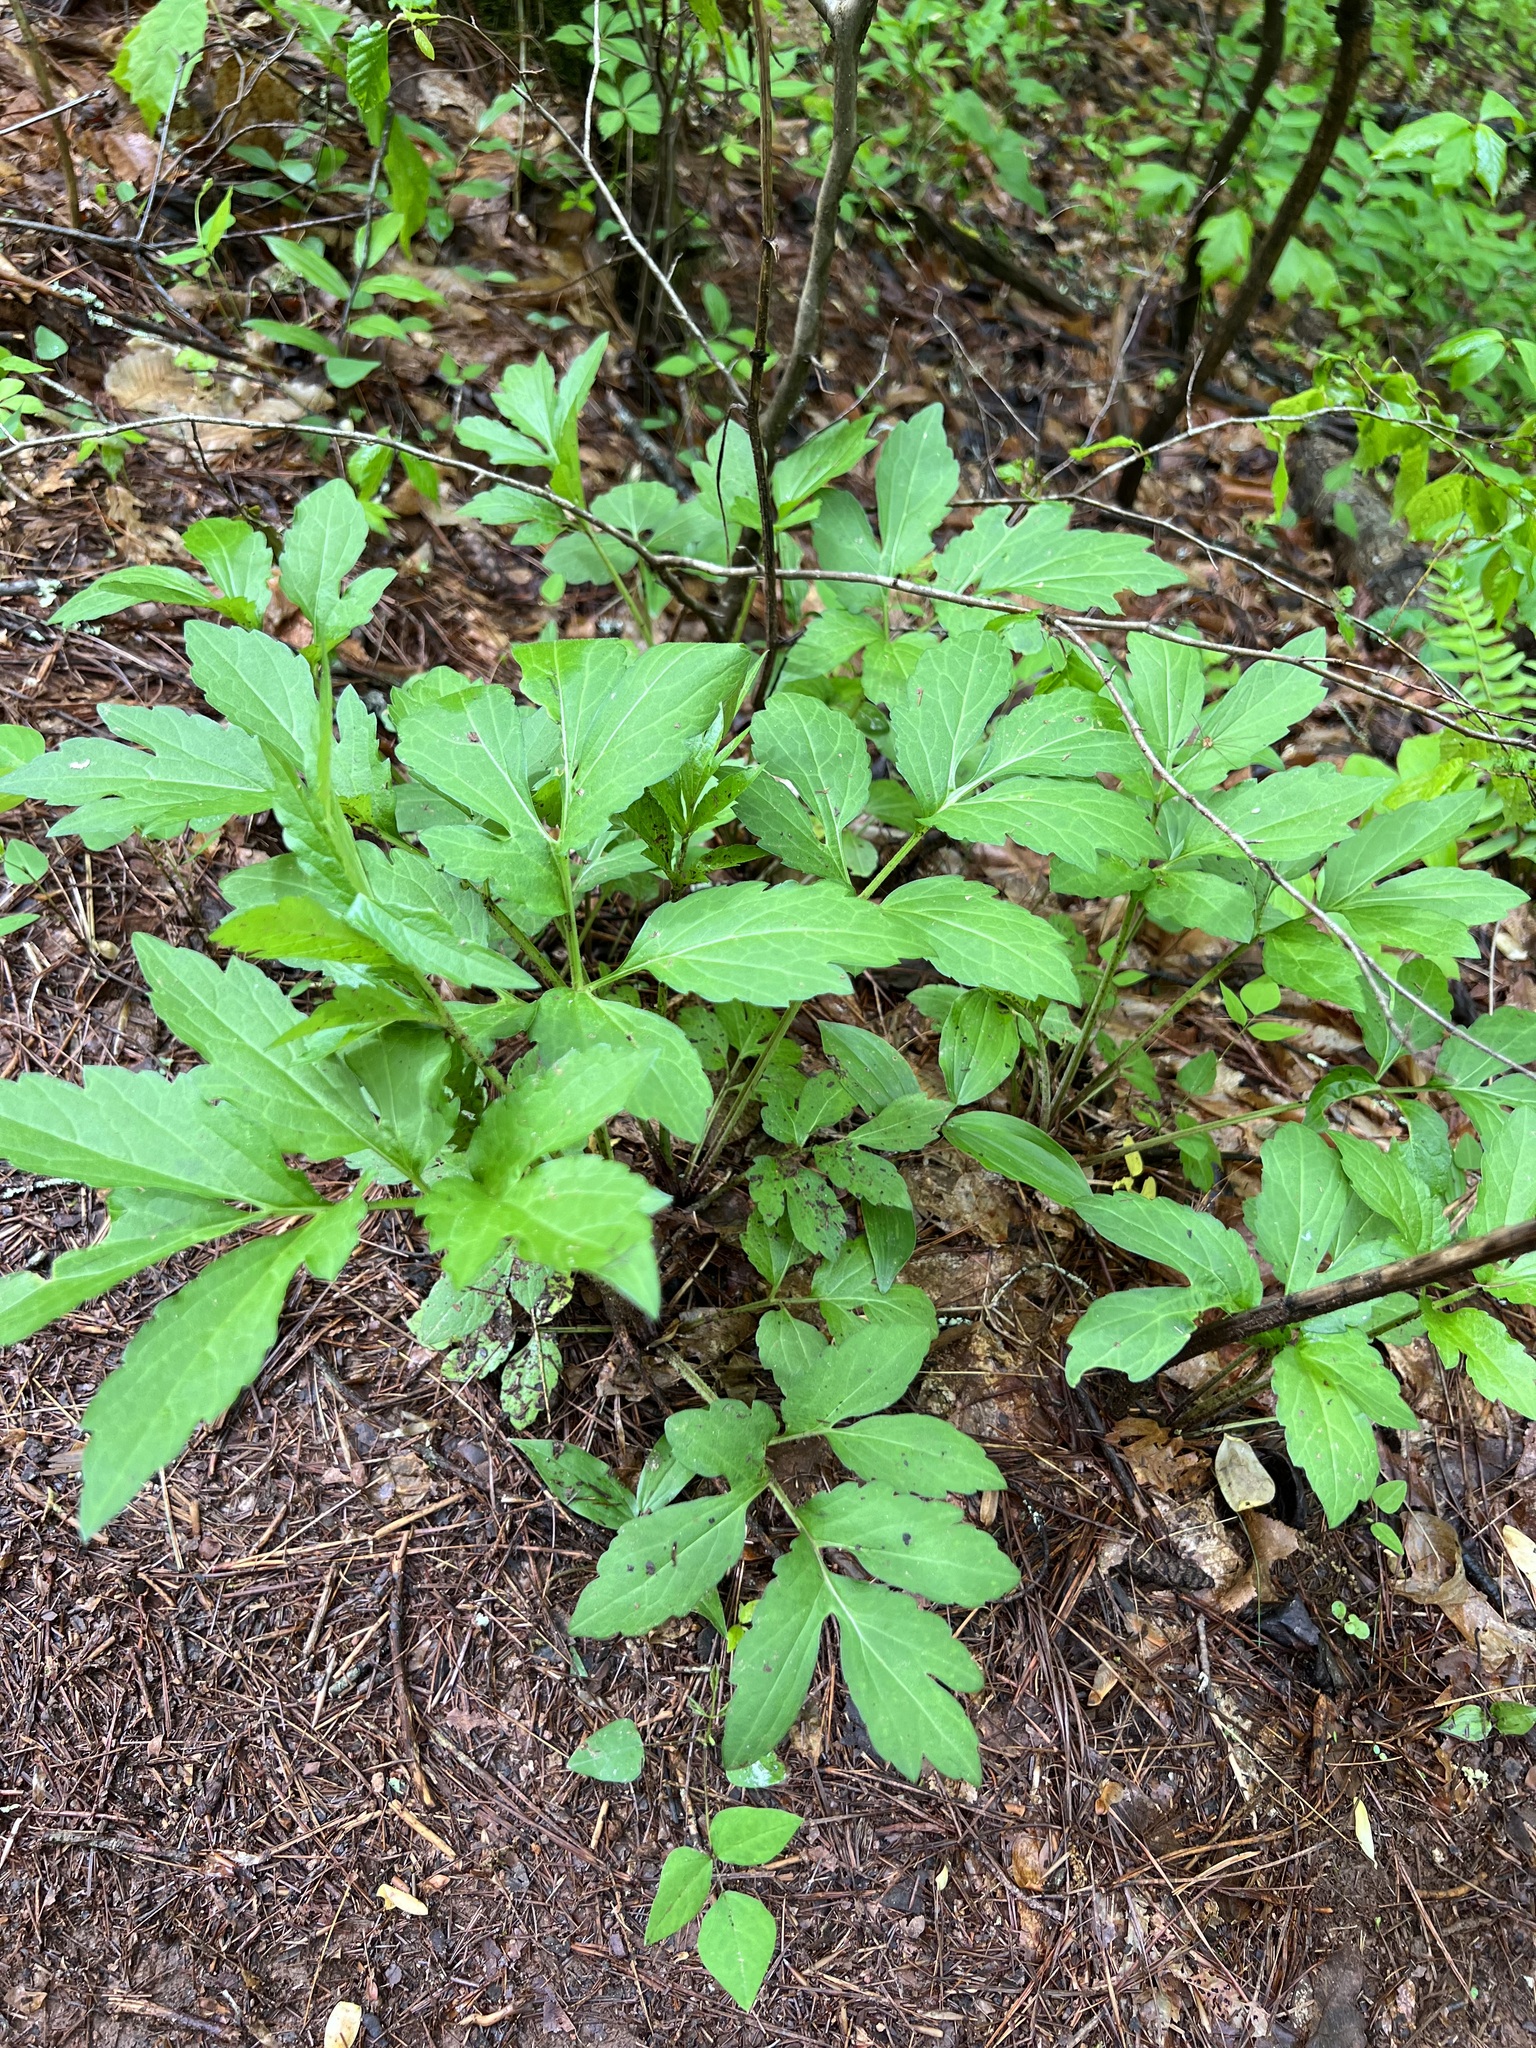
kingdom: Plantae
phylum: Tracheophyta
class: Magnoliopsida
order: Asterales
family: Asteraceae
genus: Rudbeckia
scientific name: Rudbeckia laciniata
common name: Coneflower
